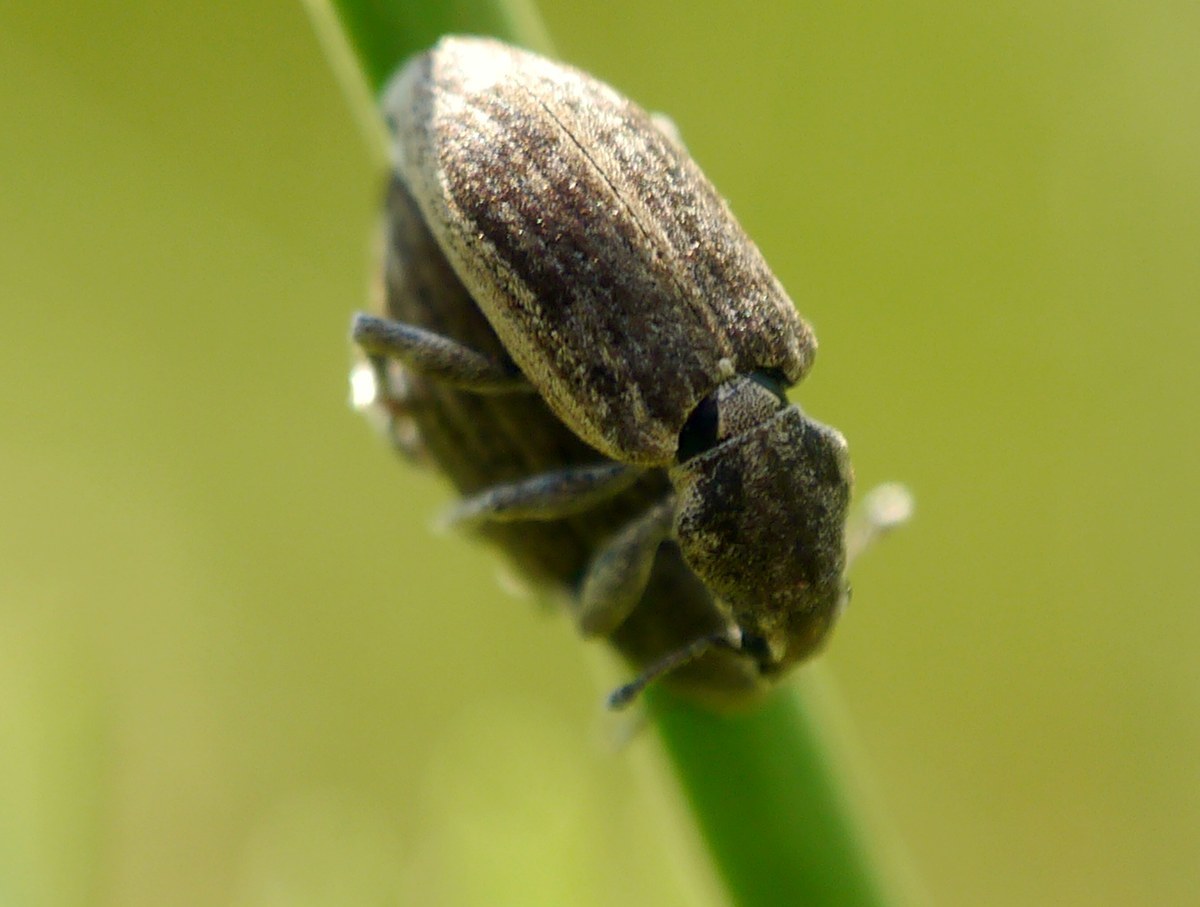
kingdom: Animalia
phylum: Arthropoda
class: Insecta
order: Coleoptera
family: Curculionidae
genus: Tanymecus
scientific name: Tanymecus dilaticollis
